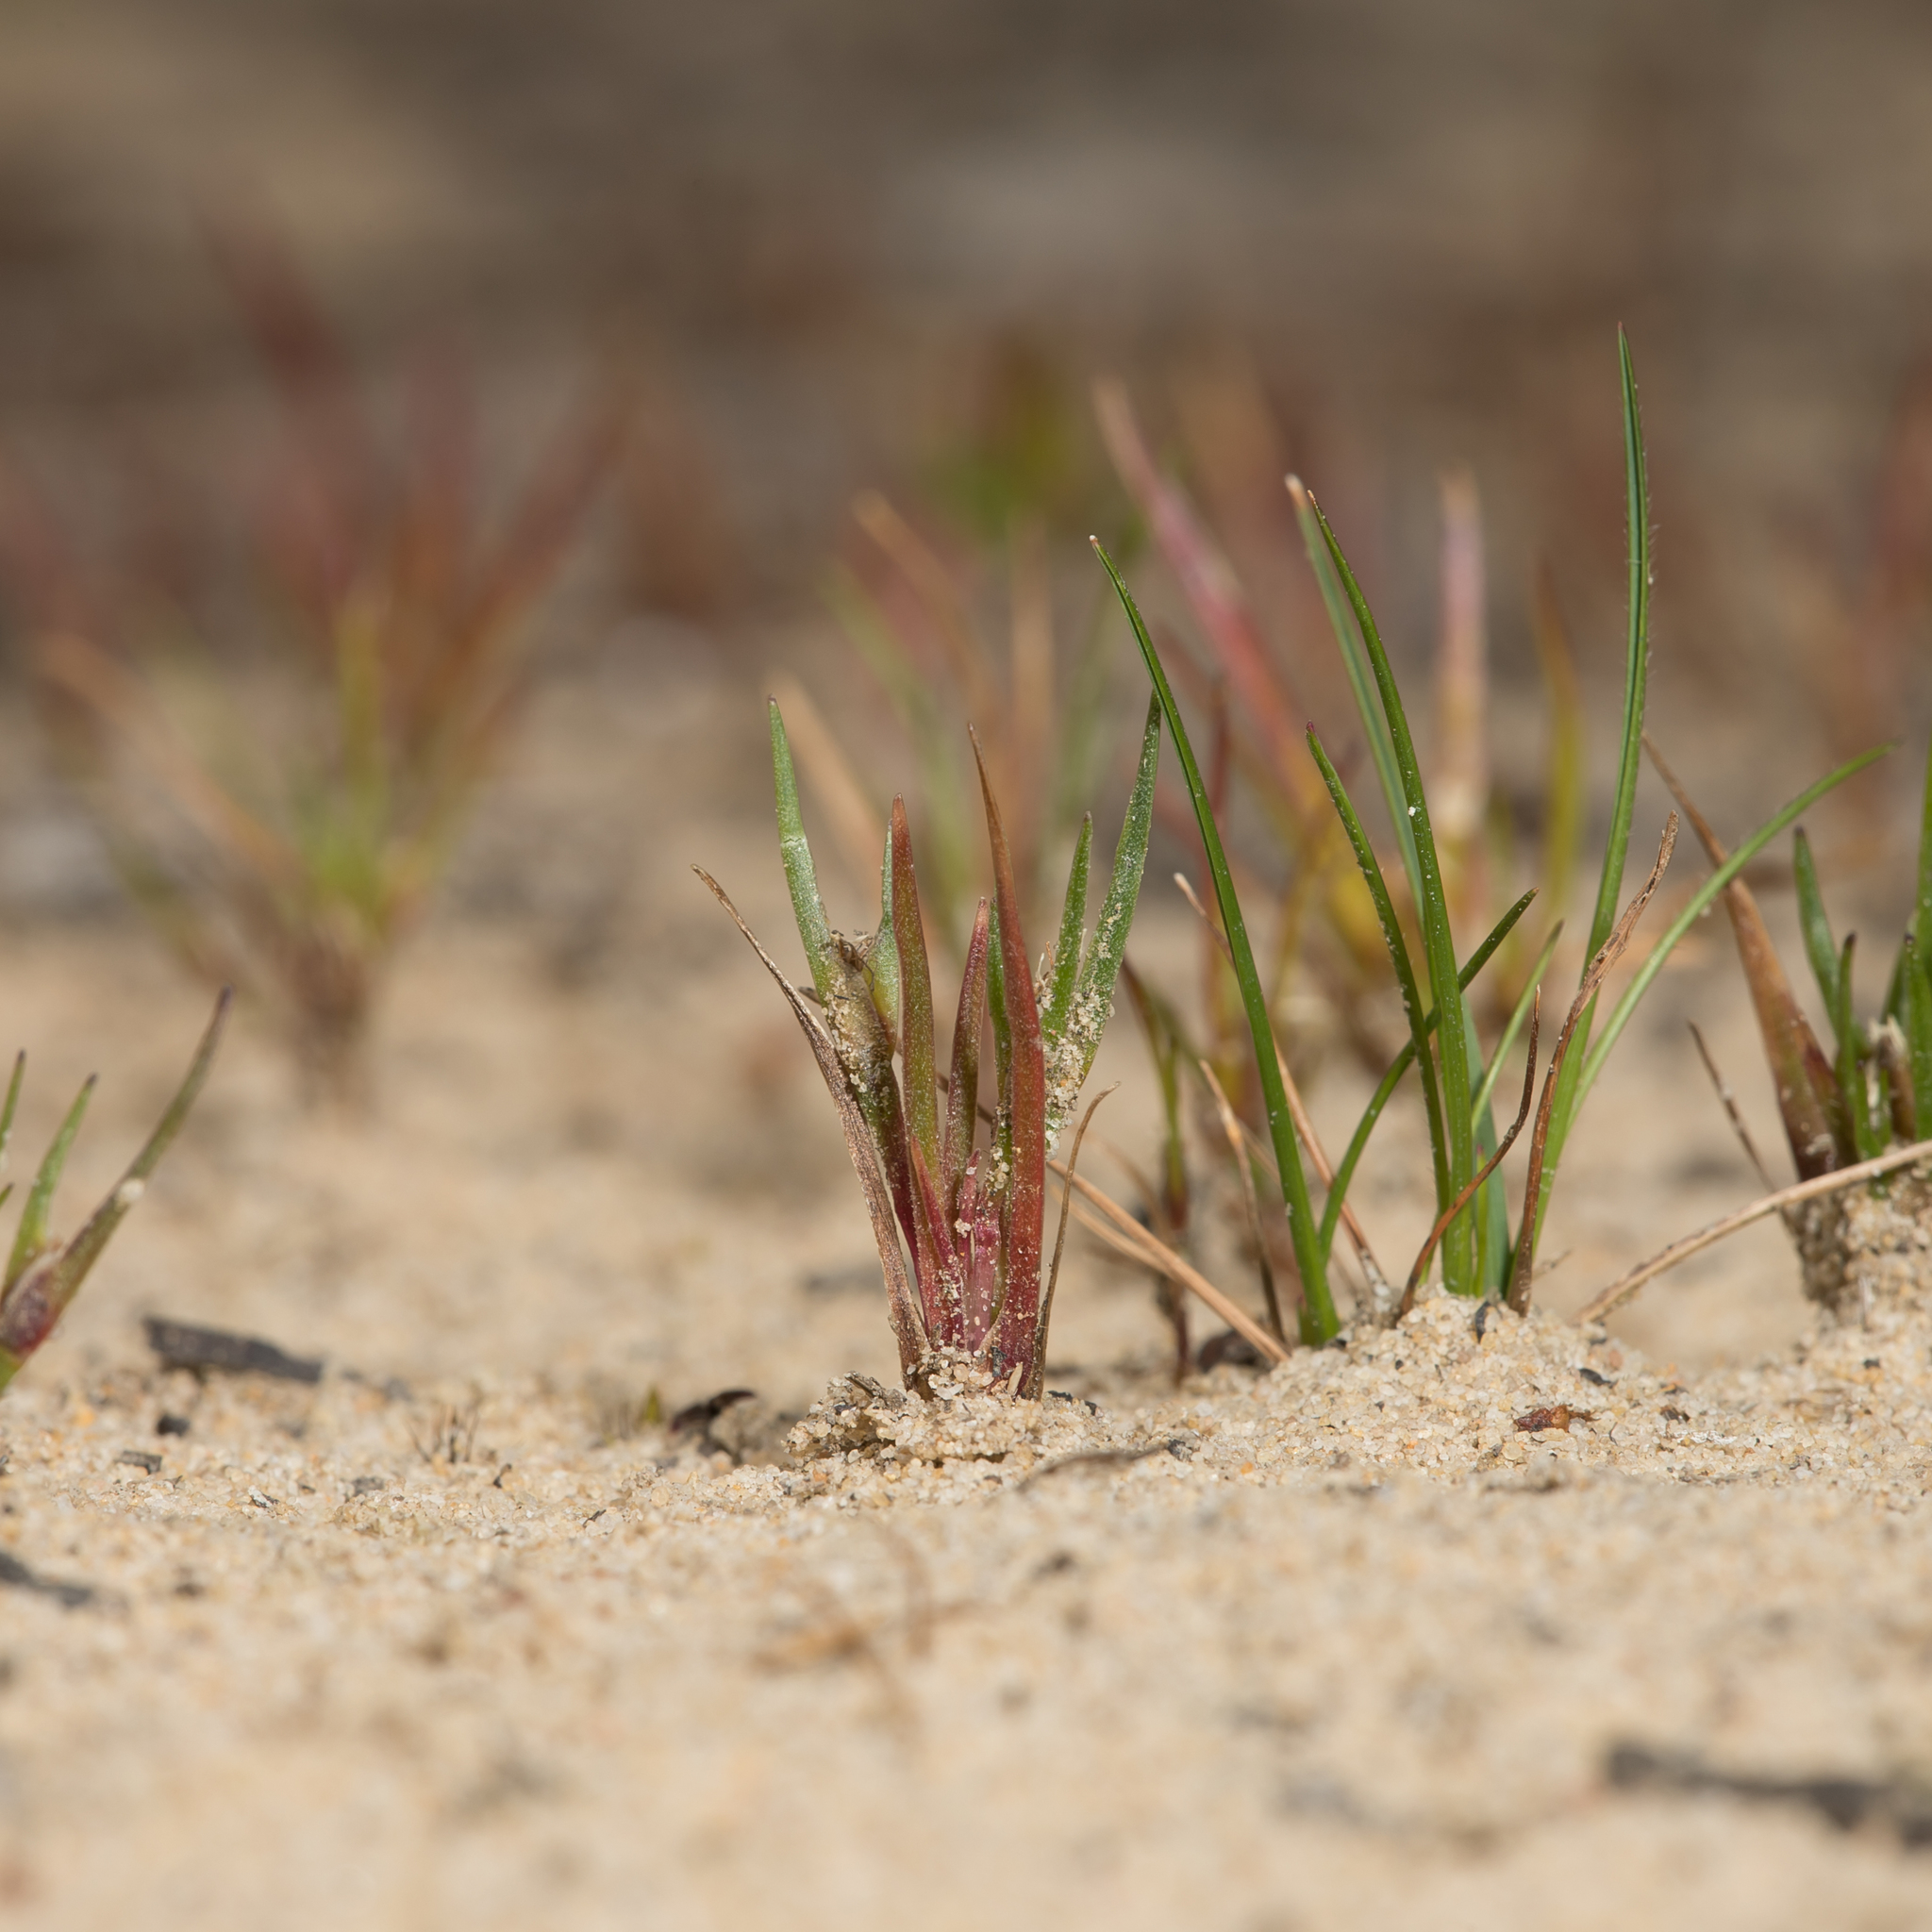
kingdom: Plantae
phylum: Tracheophyta
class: Liliopsida
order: Poales
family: Restionaceae
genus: Centrolepis
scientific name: Centrolepis aristata
